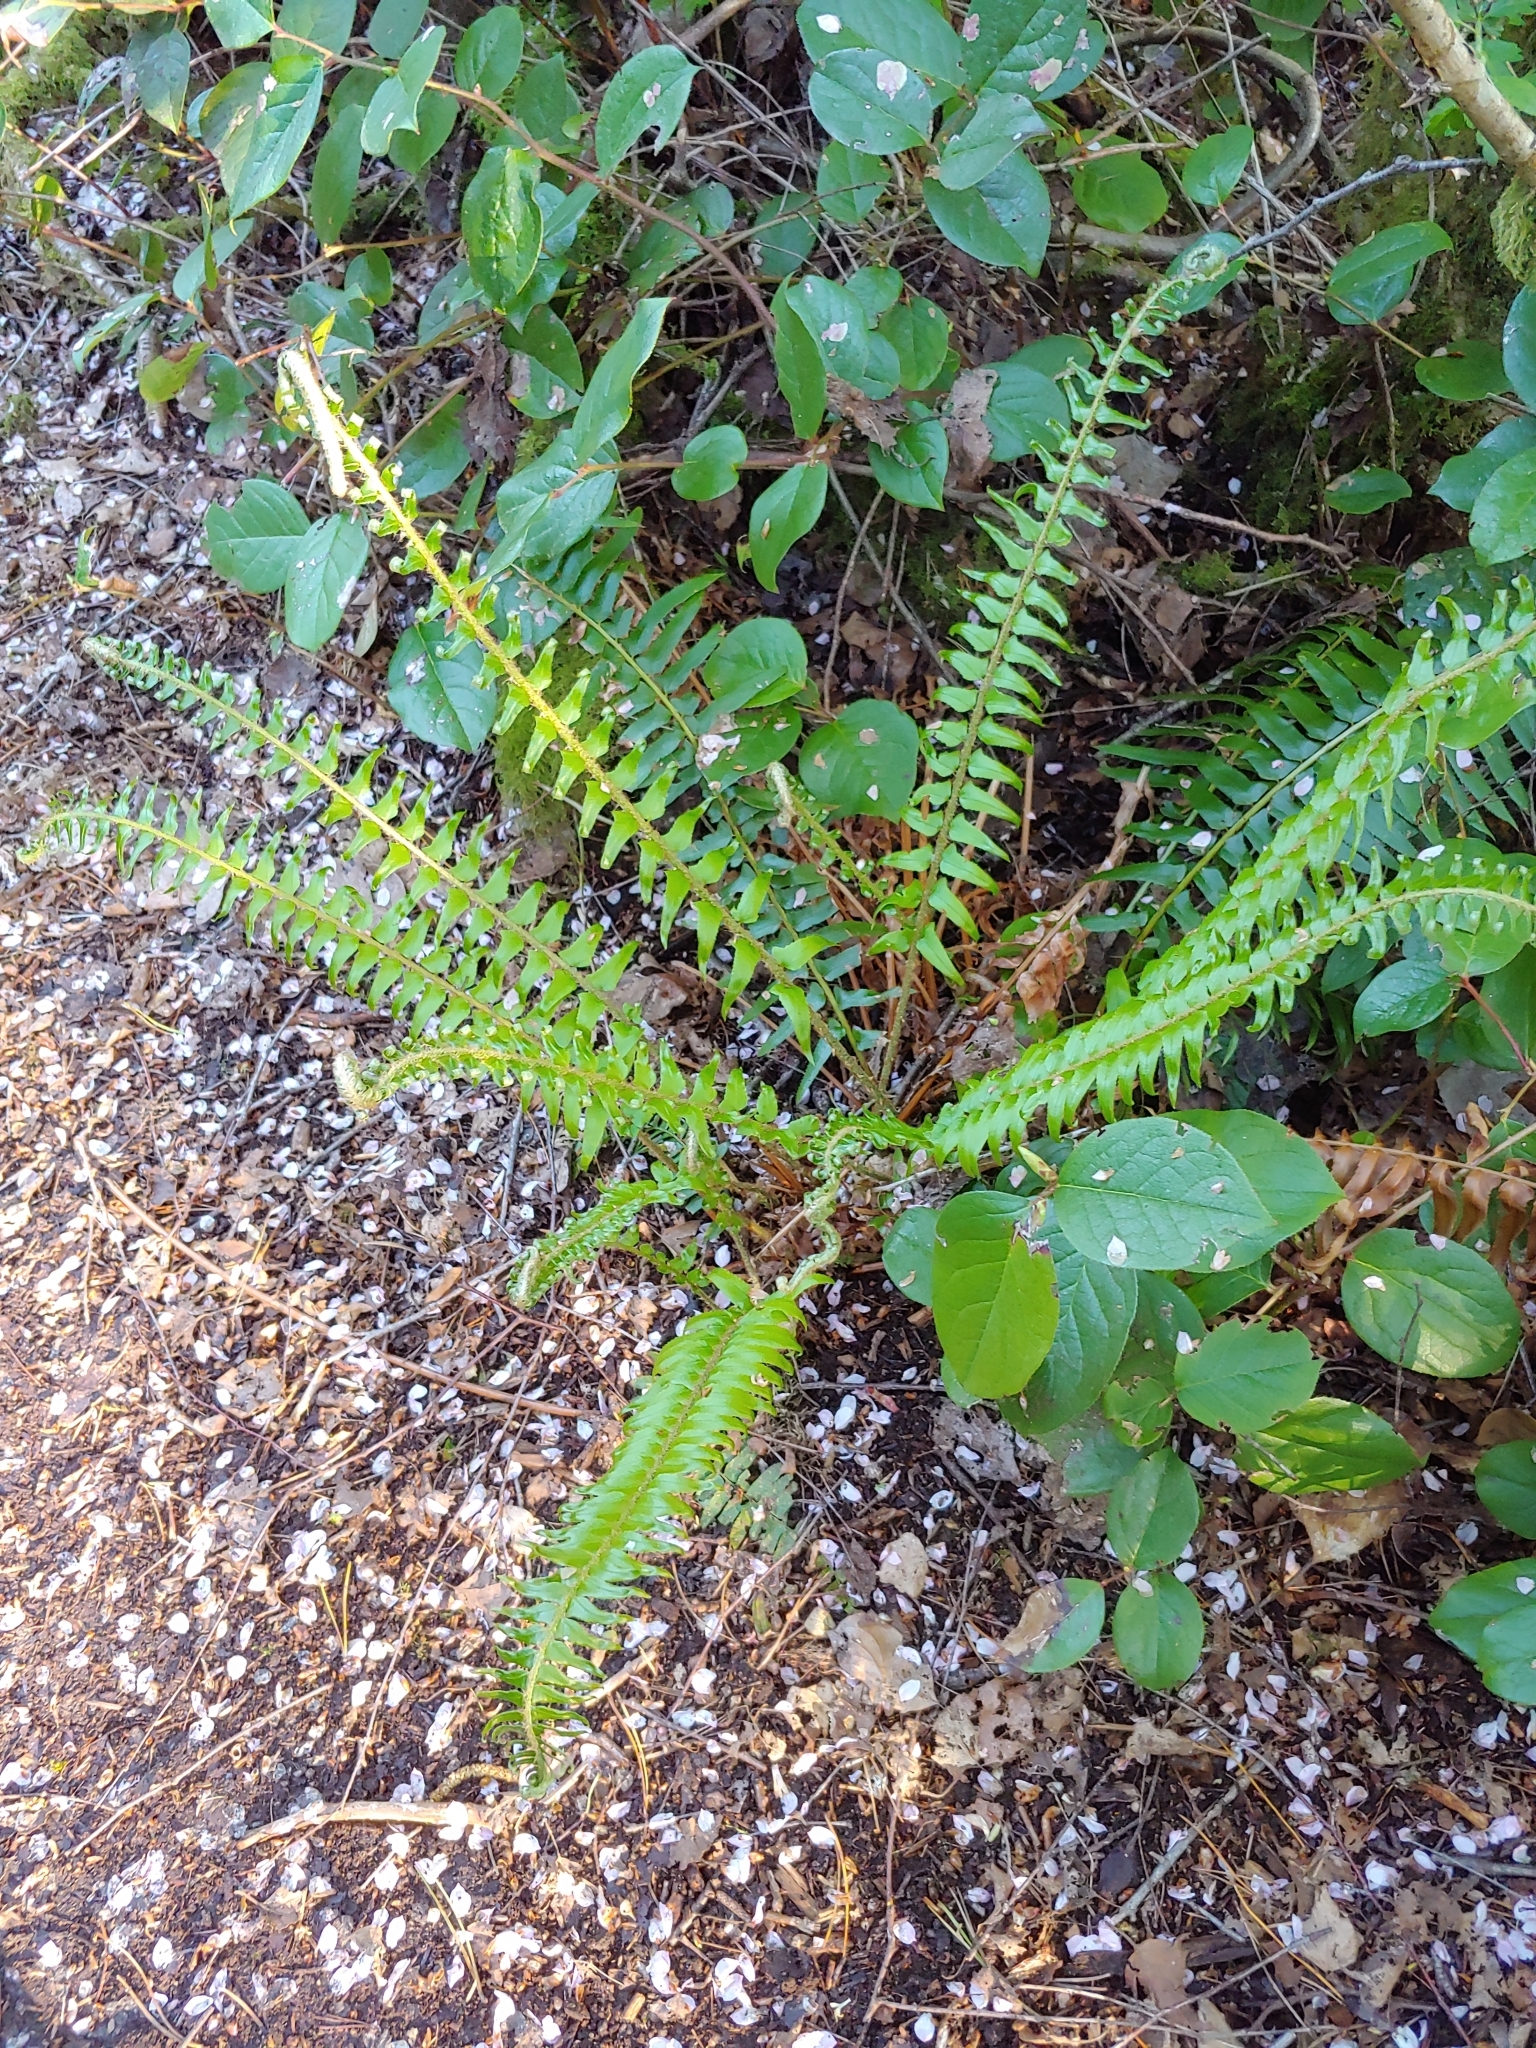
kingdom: Plantae
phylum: Tracheophyta
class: Polypodiopsida
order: Polypodiales
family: Dryopteridaceae
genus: Polystichum
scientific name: Polystichum munitum
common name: Western sword-fern
